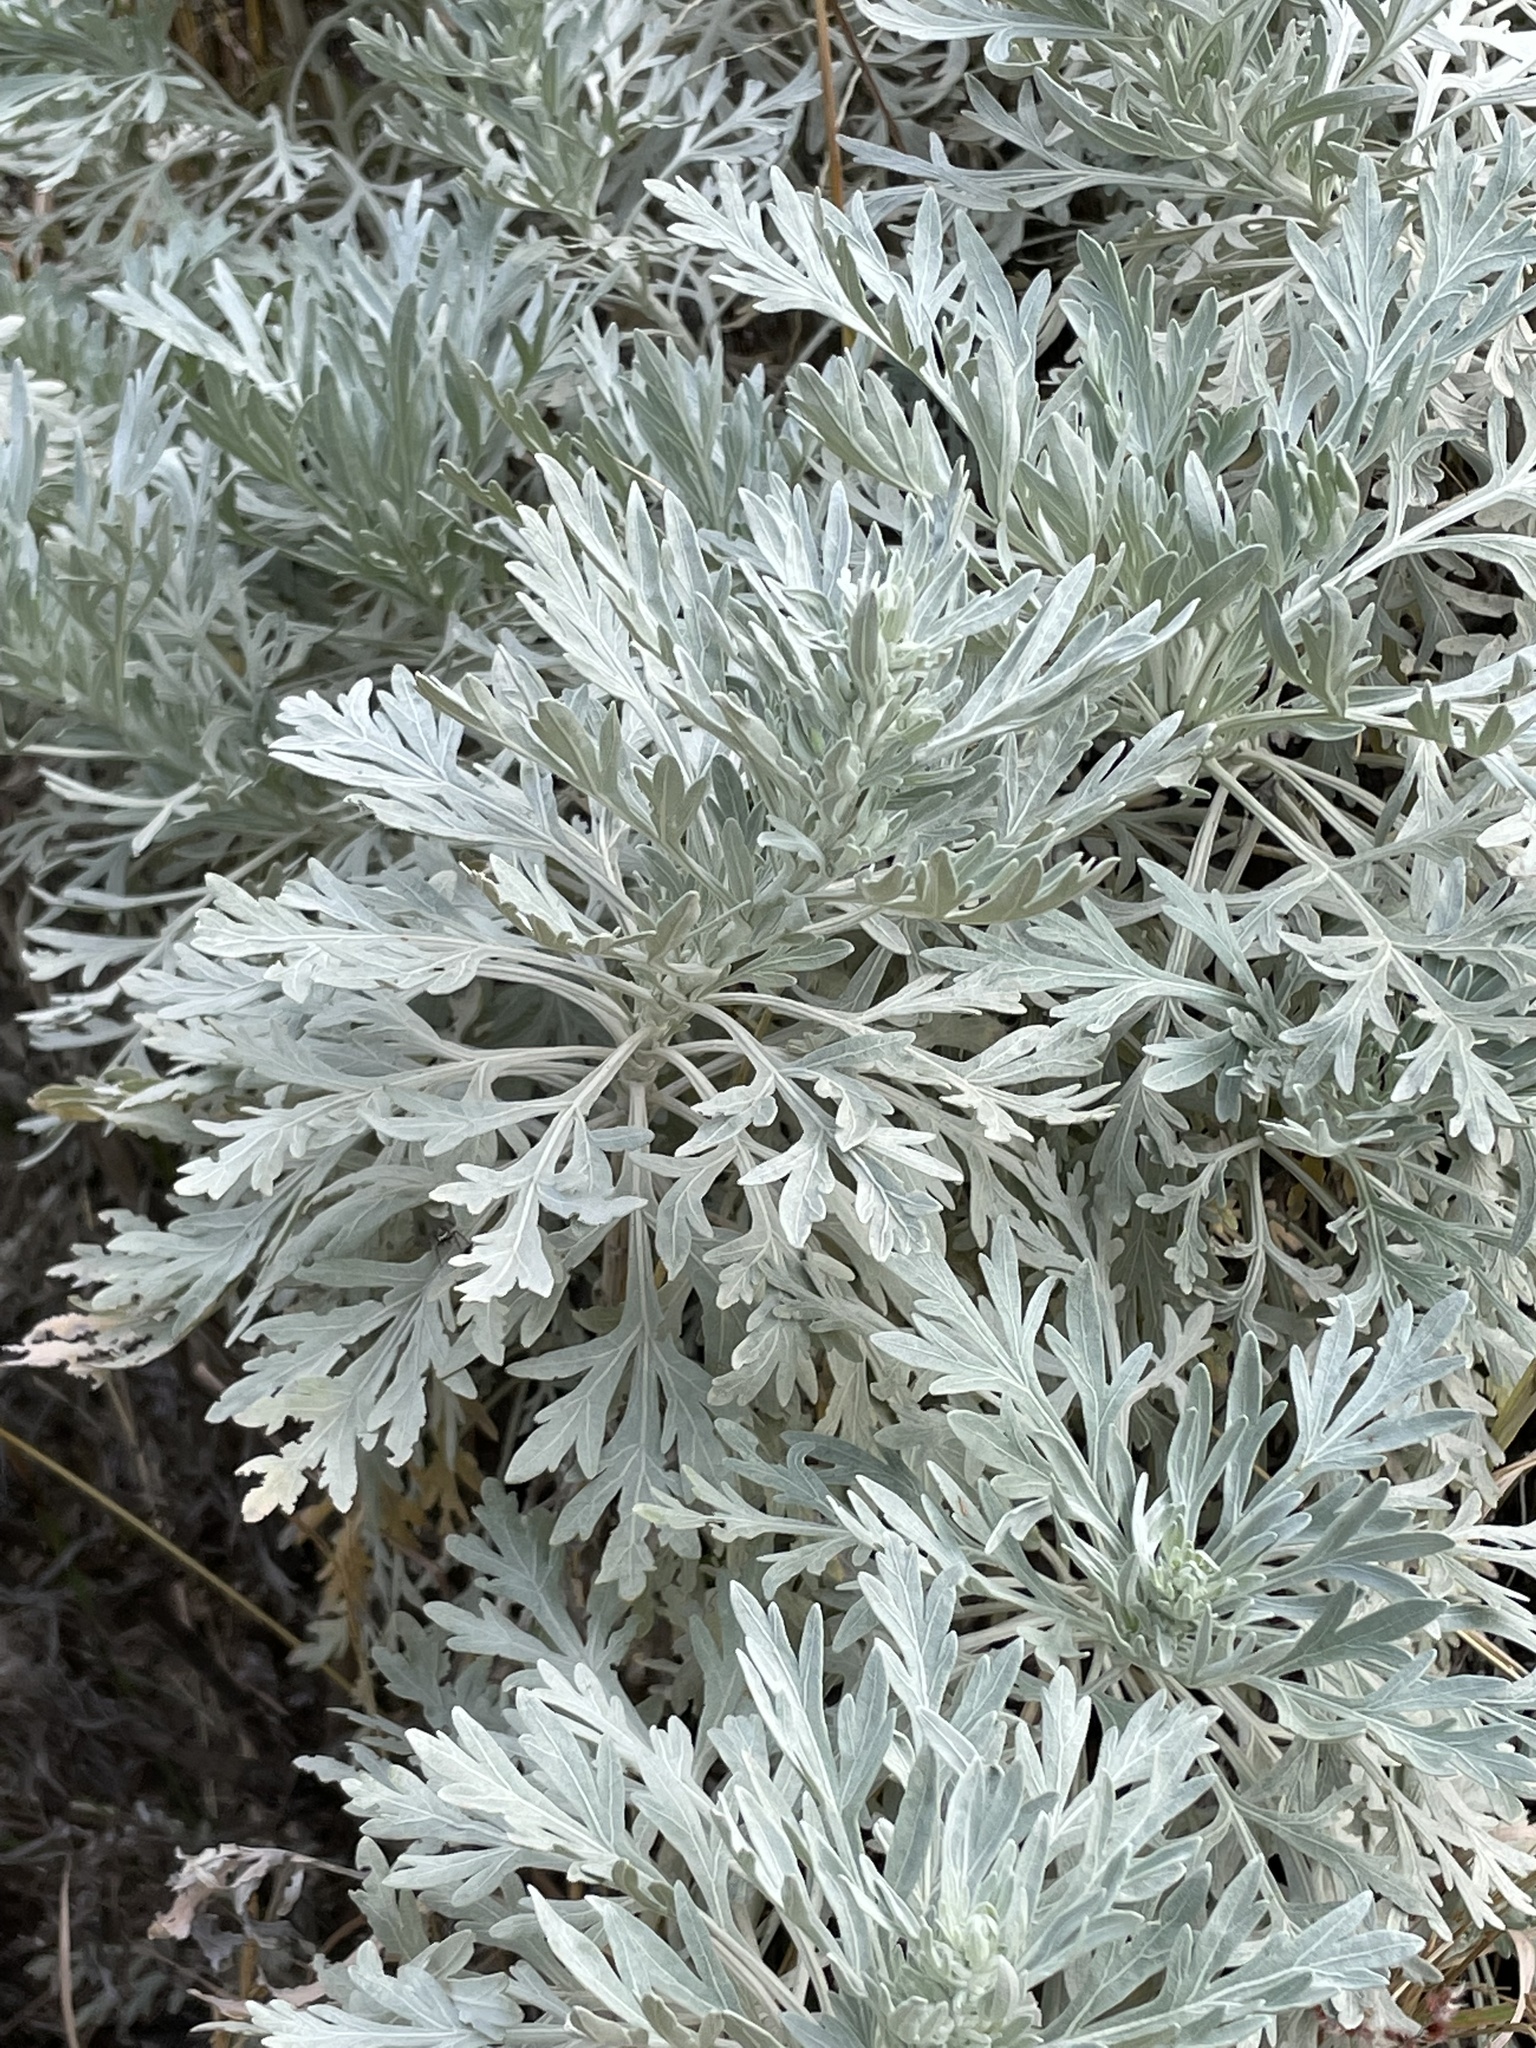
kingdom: Plantae
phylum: Tracheophyta
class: Magnoliopsida
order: Asterales
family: Asteraceae
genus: Artemisia
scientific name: Artemisia gorgonum
